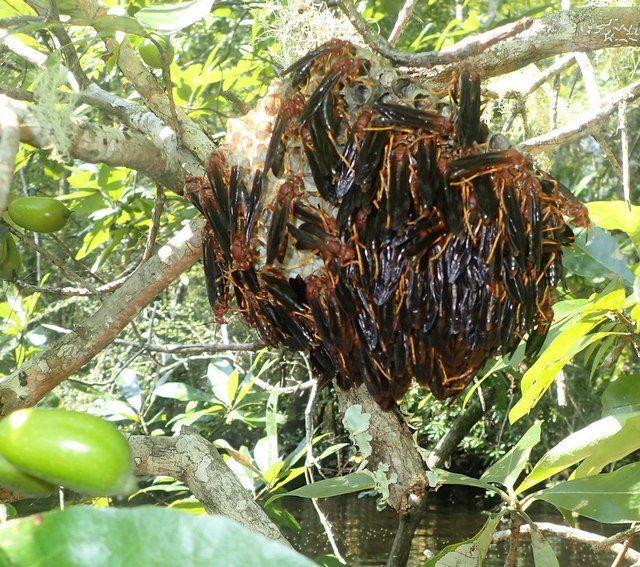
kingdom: Animalia
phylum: Arthropoda
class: Insecta
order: Hymenoptera
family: Eumenidae
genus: Polistes
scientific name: Polistes annularis
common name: Ringed paper wasp
